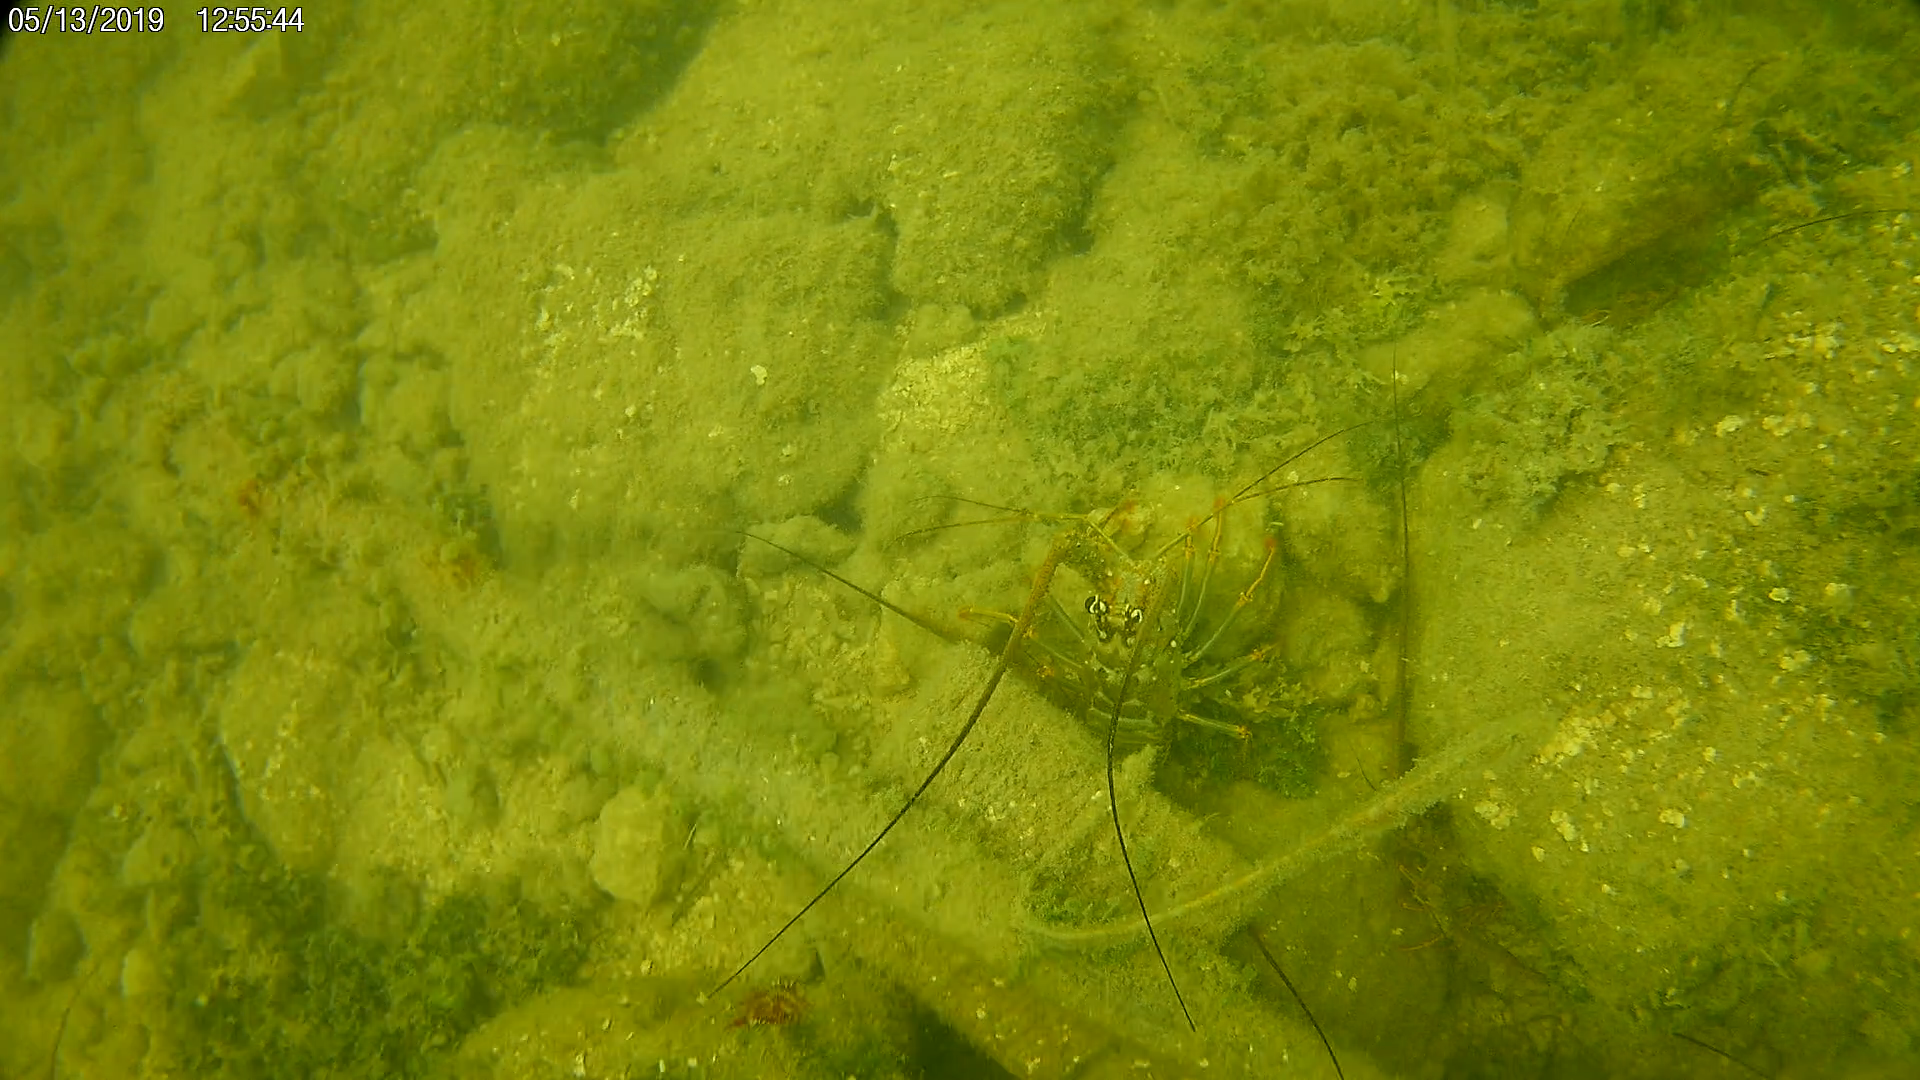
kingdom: Animalia
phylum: Arthropoda
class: Malacostraca
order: Decapoda
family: Palinuridae
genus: Panulirus
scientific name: Panulirus argus
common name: Caribbean spiny lobster
